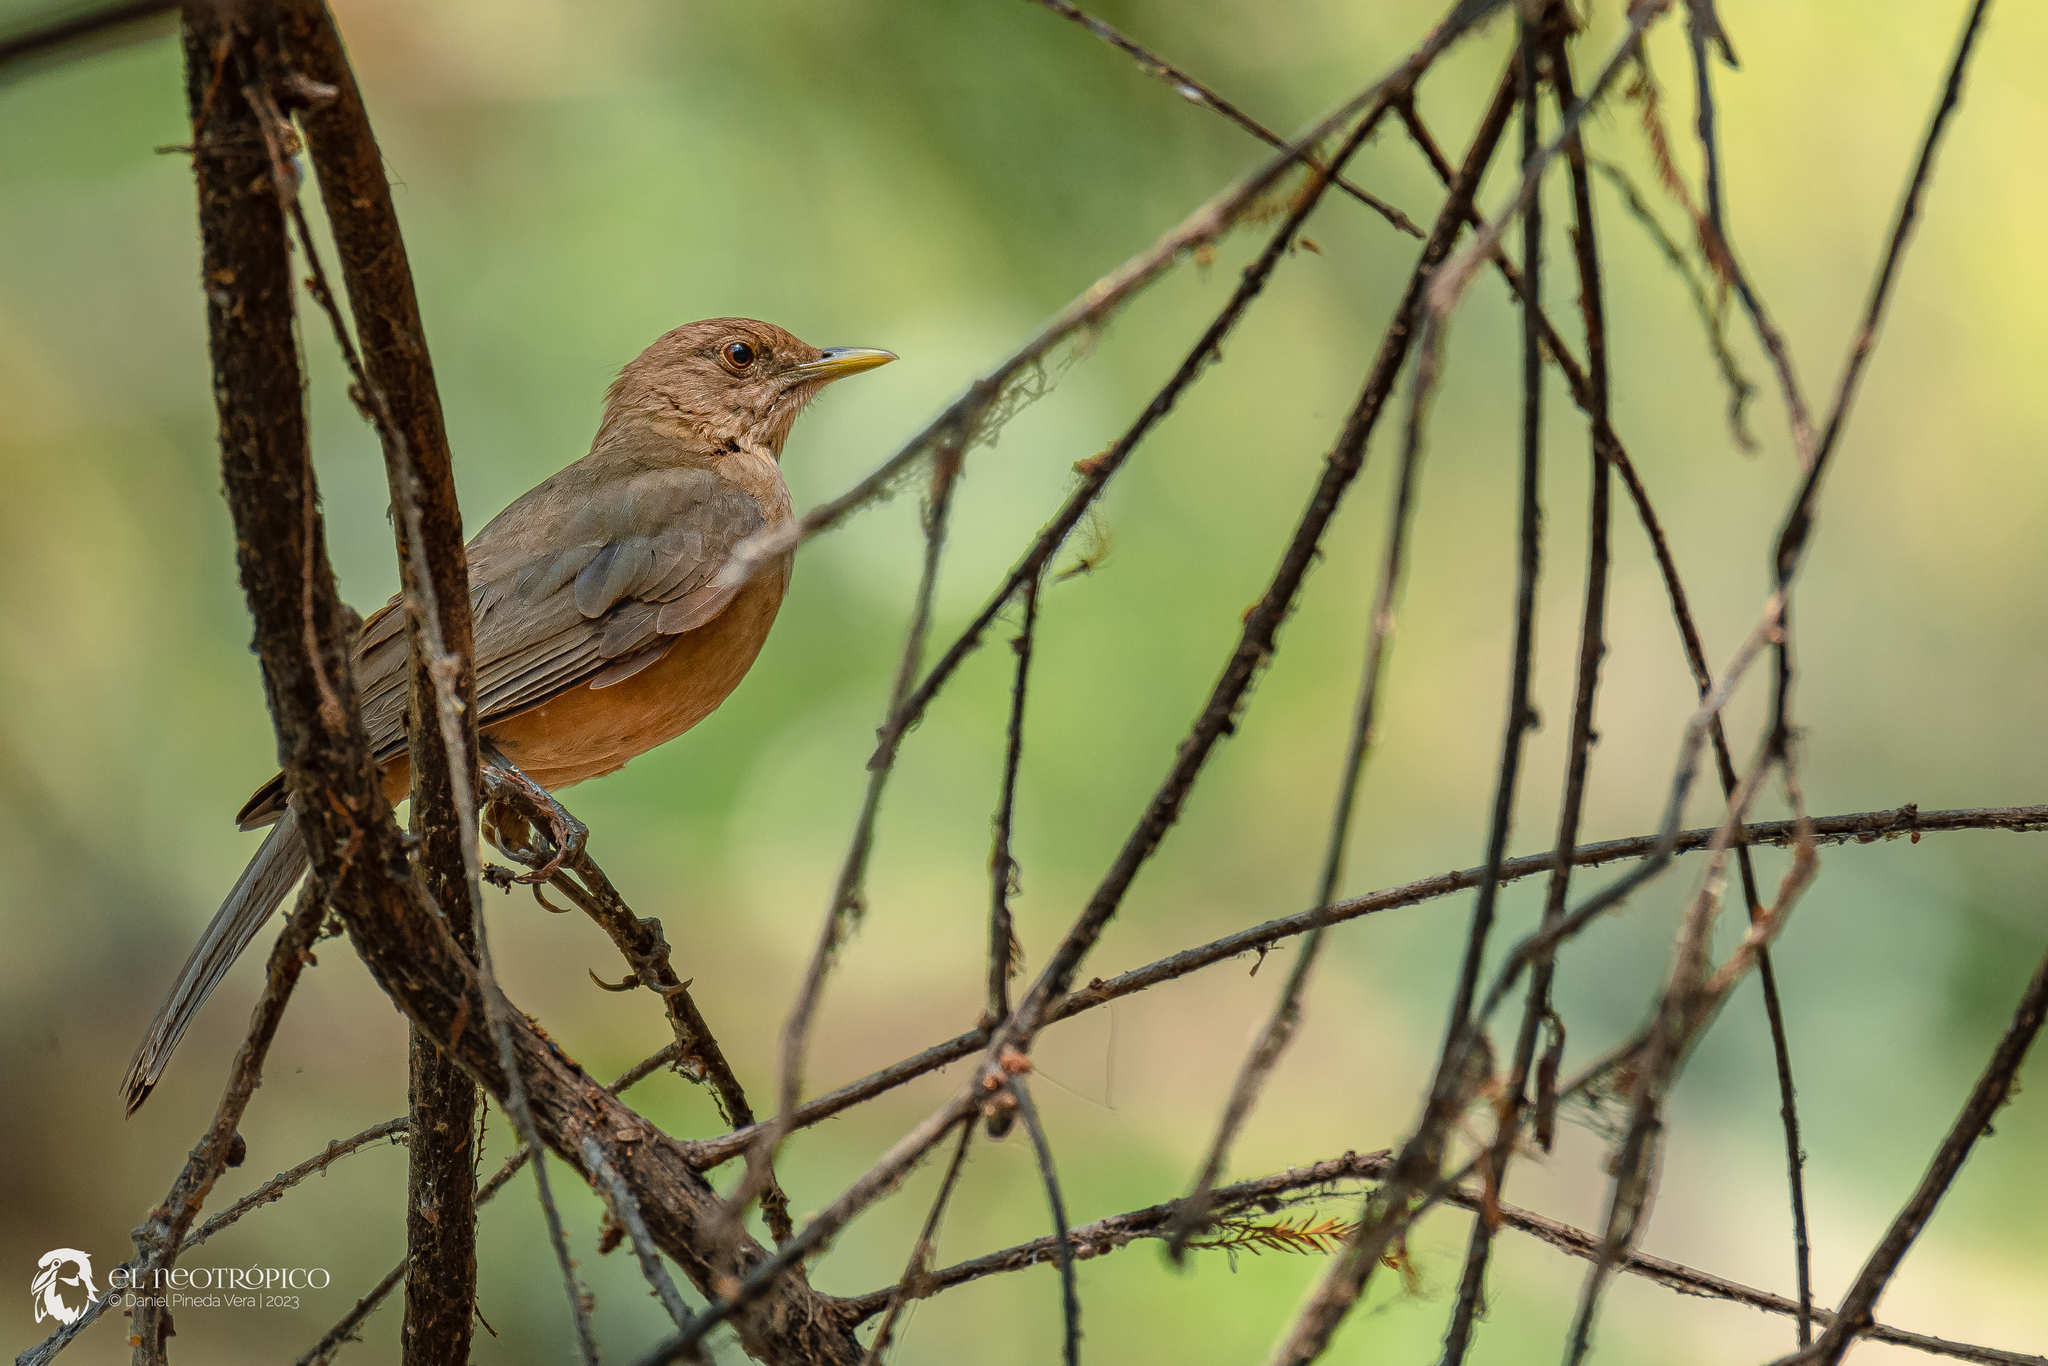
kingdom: Animalia
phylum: Chordata
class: Aves
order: Passeriformes
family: Turdidae
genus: Turdus
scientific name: Turdus grayi
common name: Clay-colored thrush
